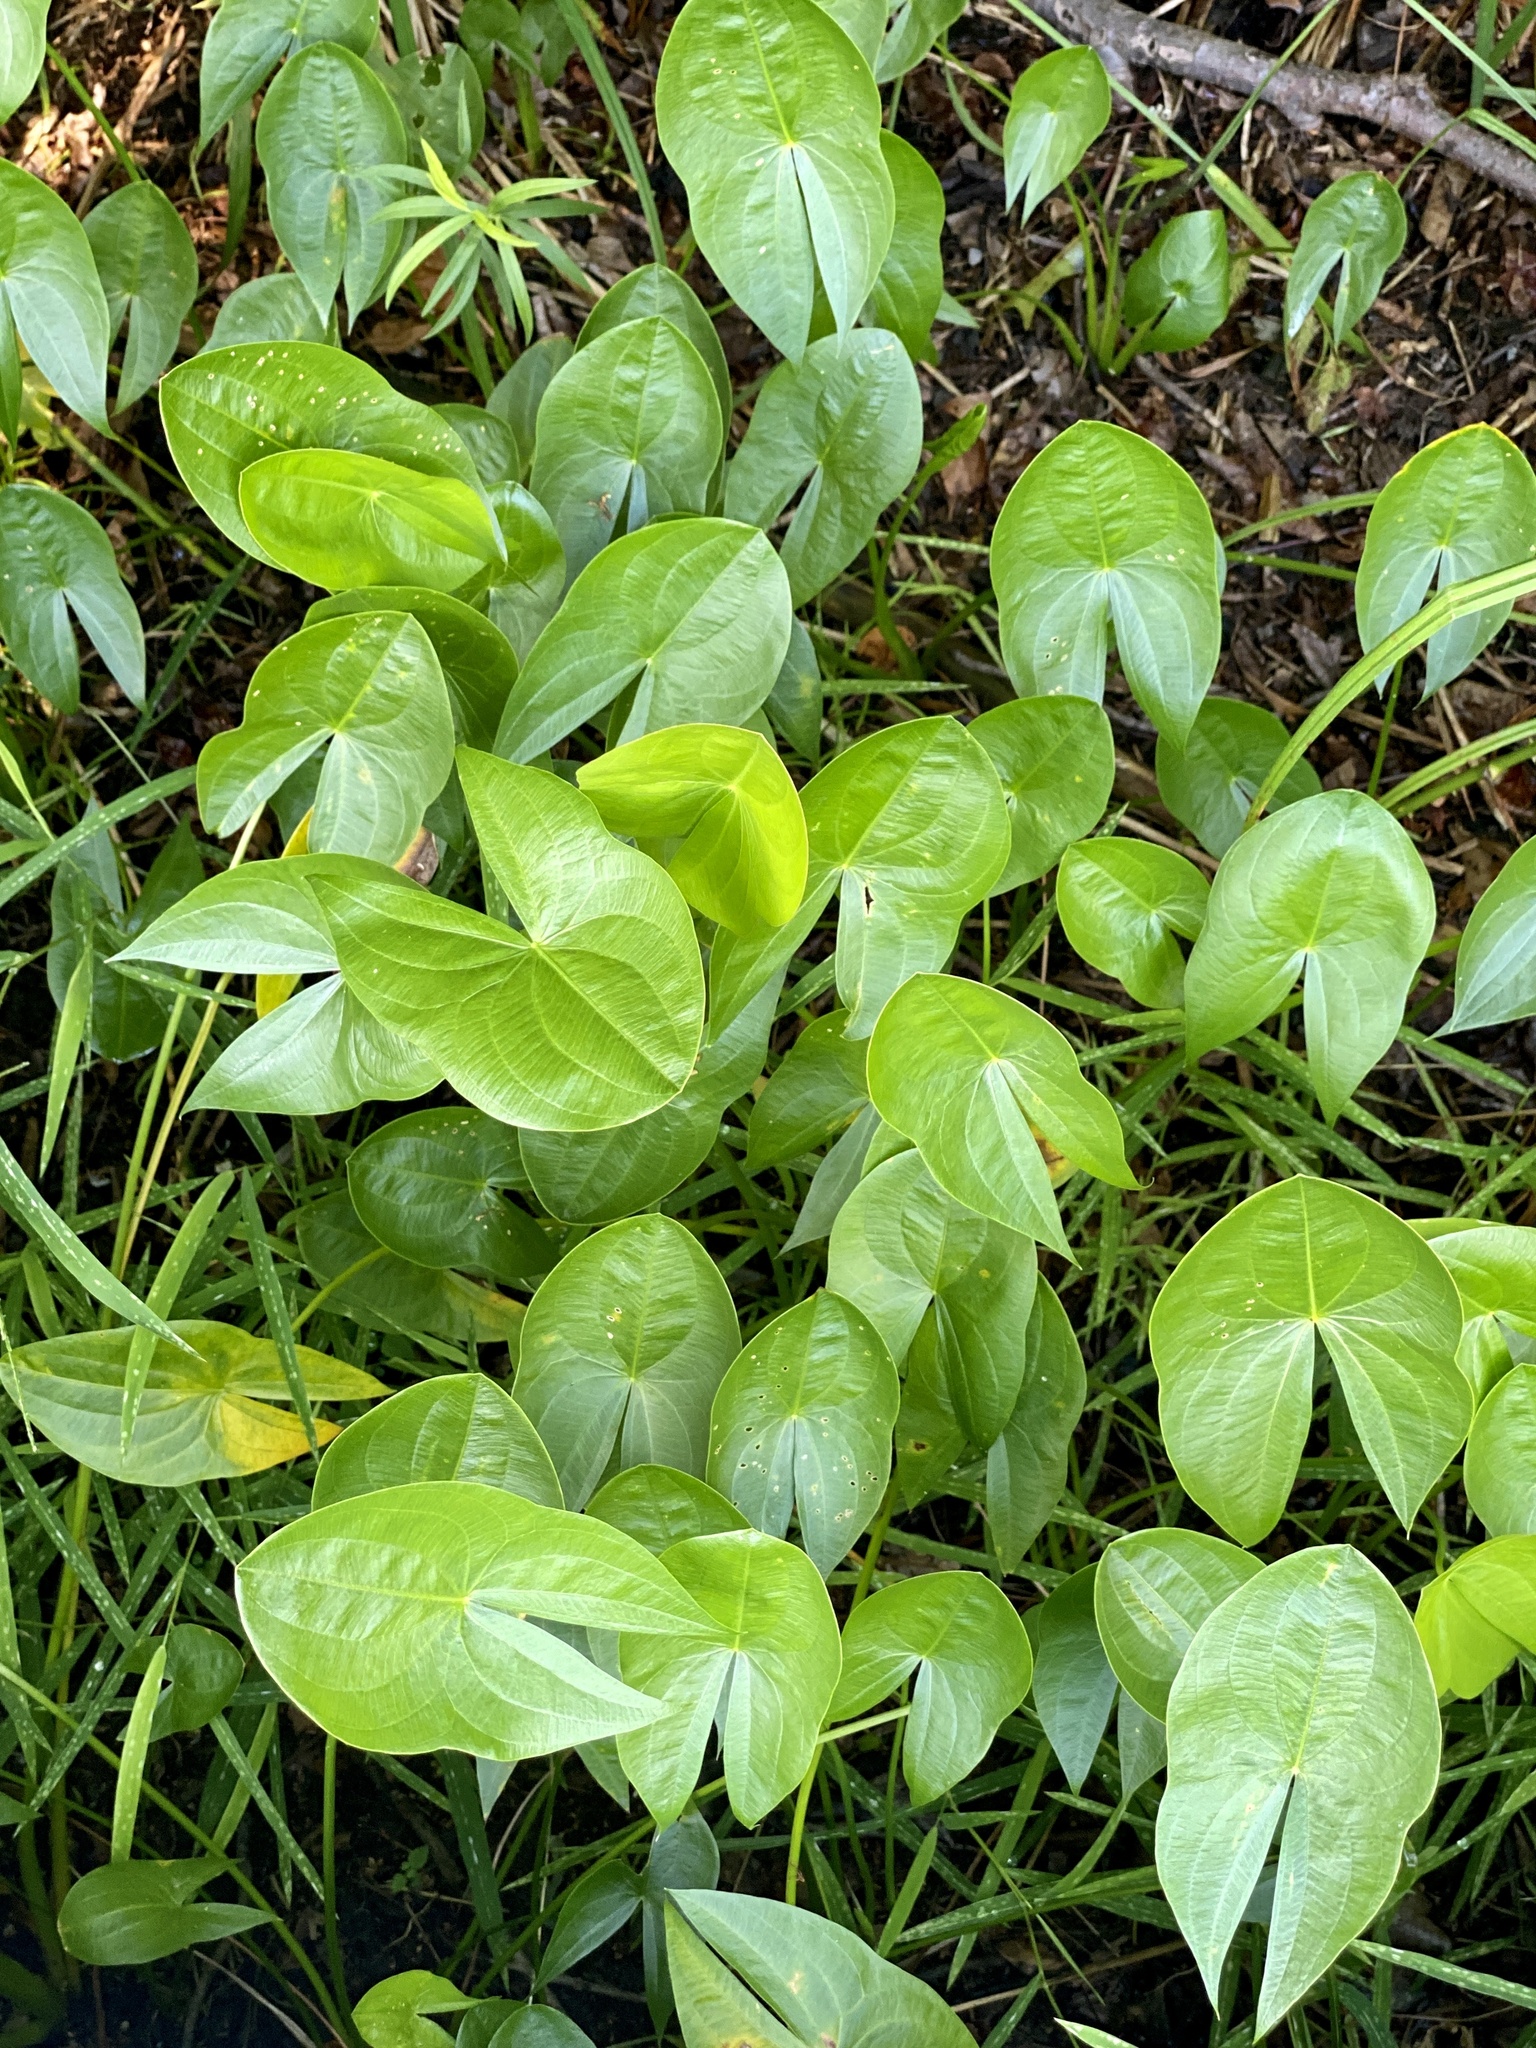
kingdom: Plantae
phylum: Tracheophyta
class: Liliopsida
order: Alismatales
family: Alismataceae
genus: Sagittaria
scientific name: Sagittaria latifolia
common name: Duck-potato
